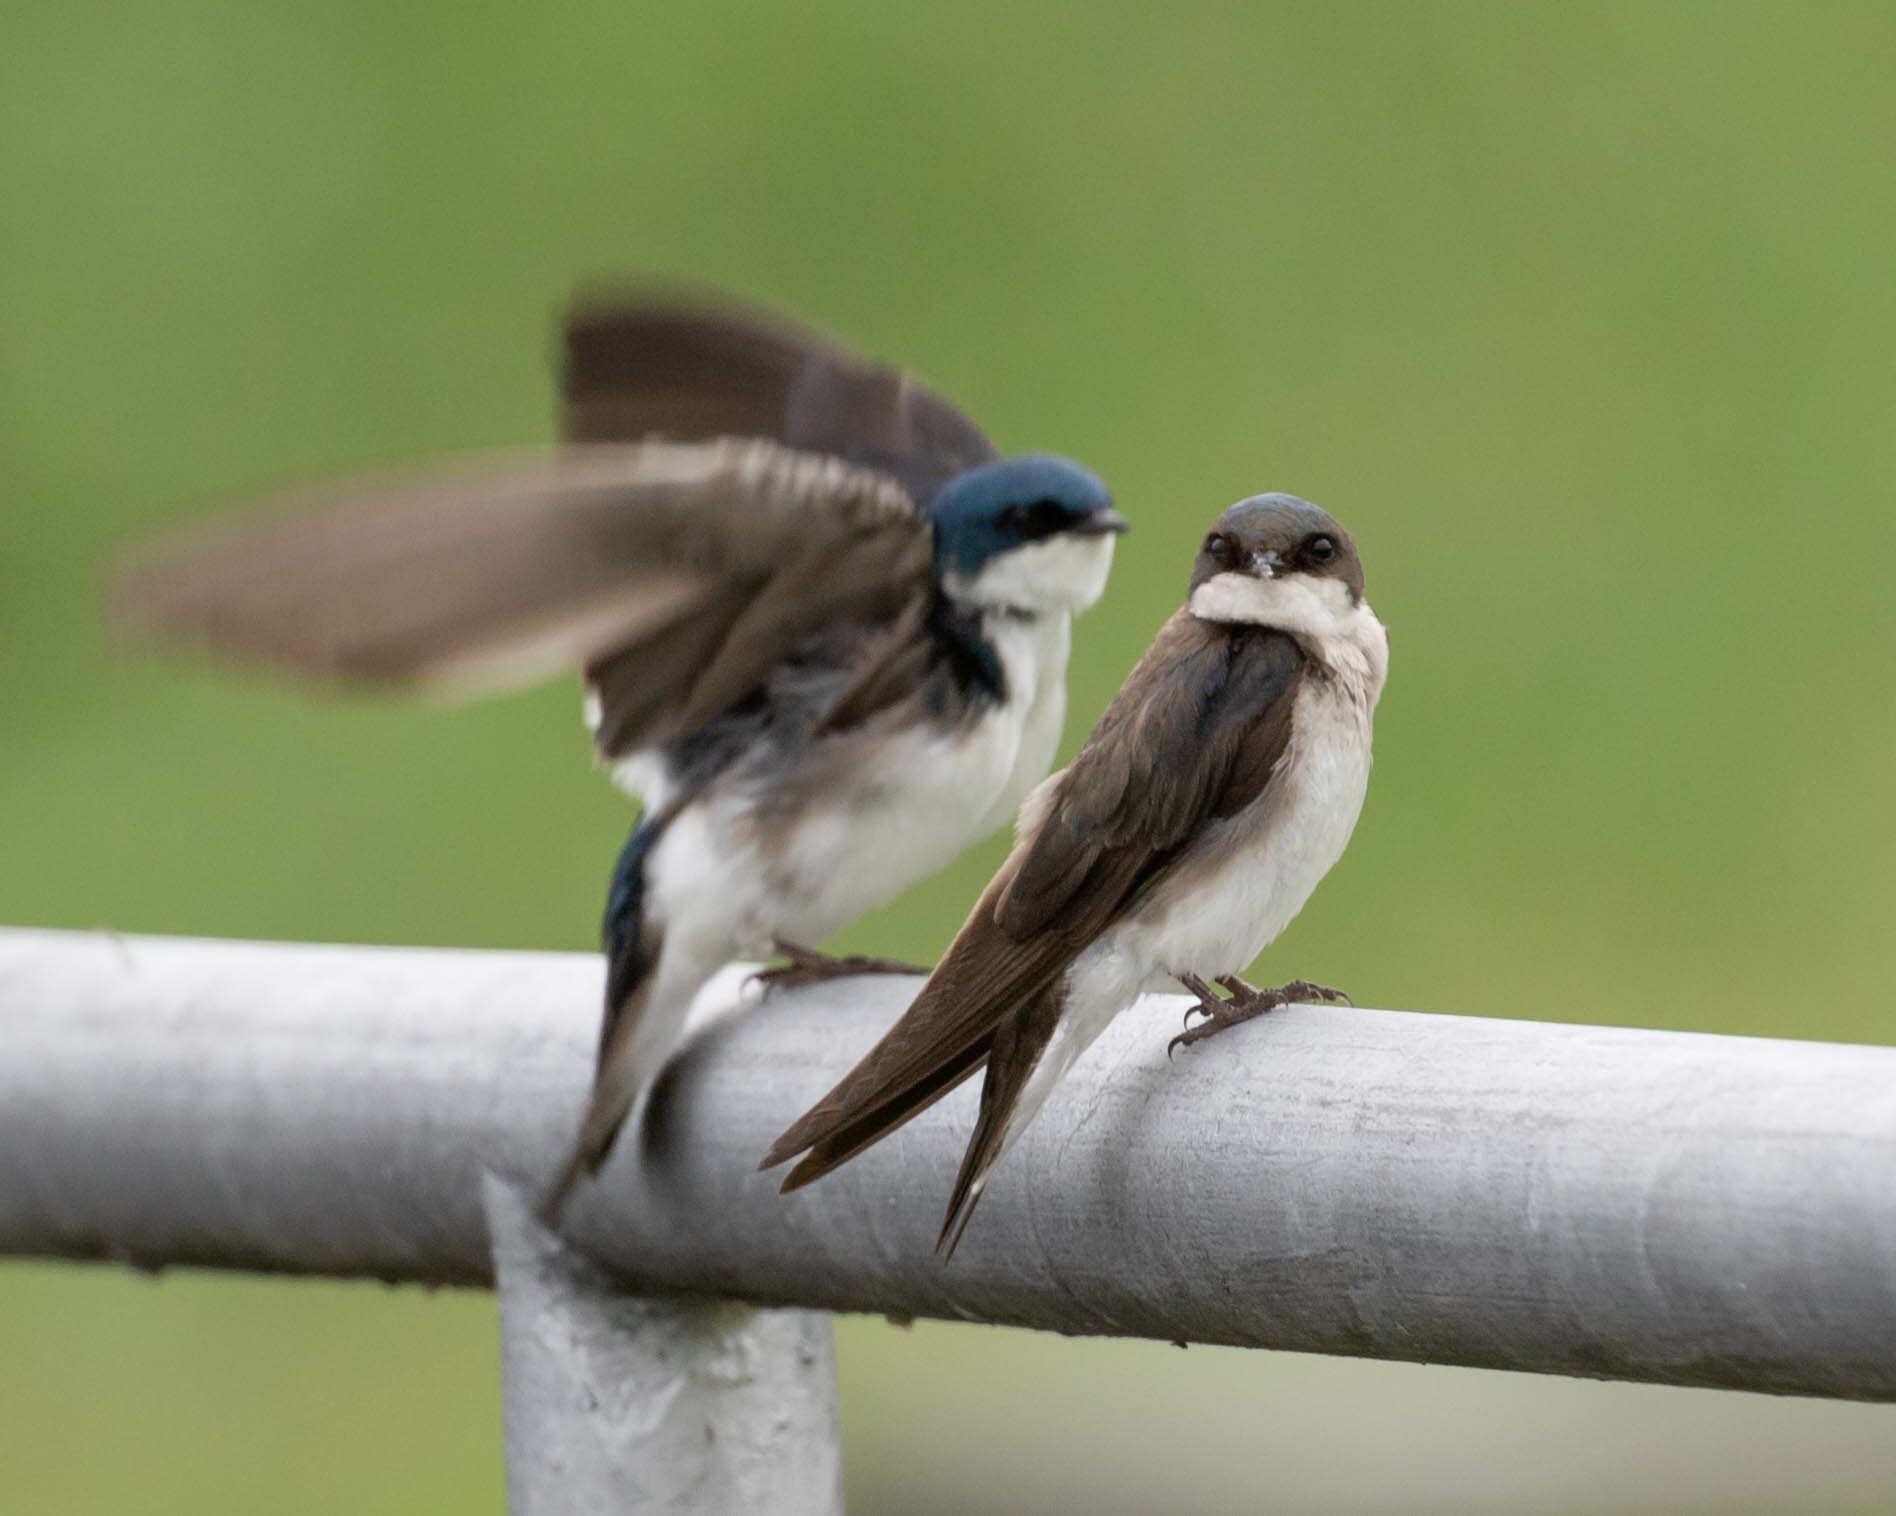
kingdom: Animalia
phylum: Chordata
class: Aves
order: Passeriformes
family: Hirundinidae
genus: Tachycineta
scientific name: Tachycineta bicolor
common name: Tree swallow
